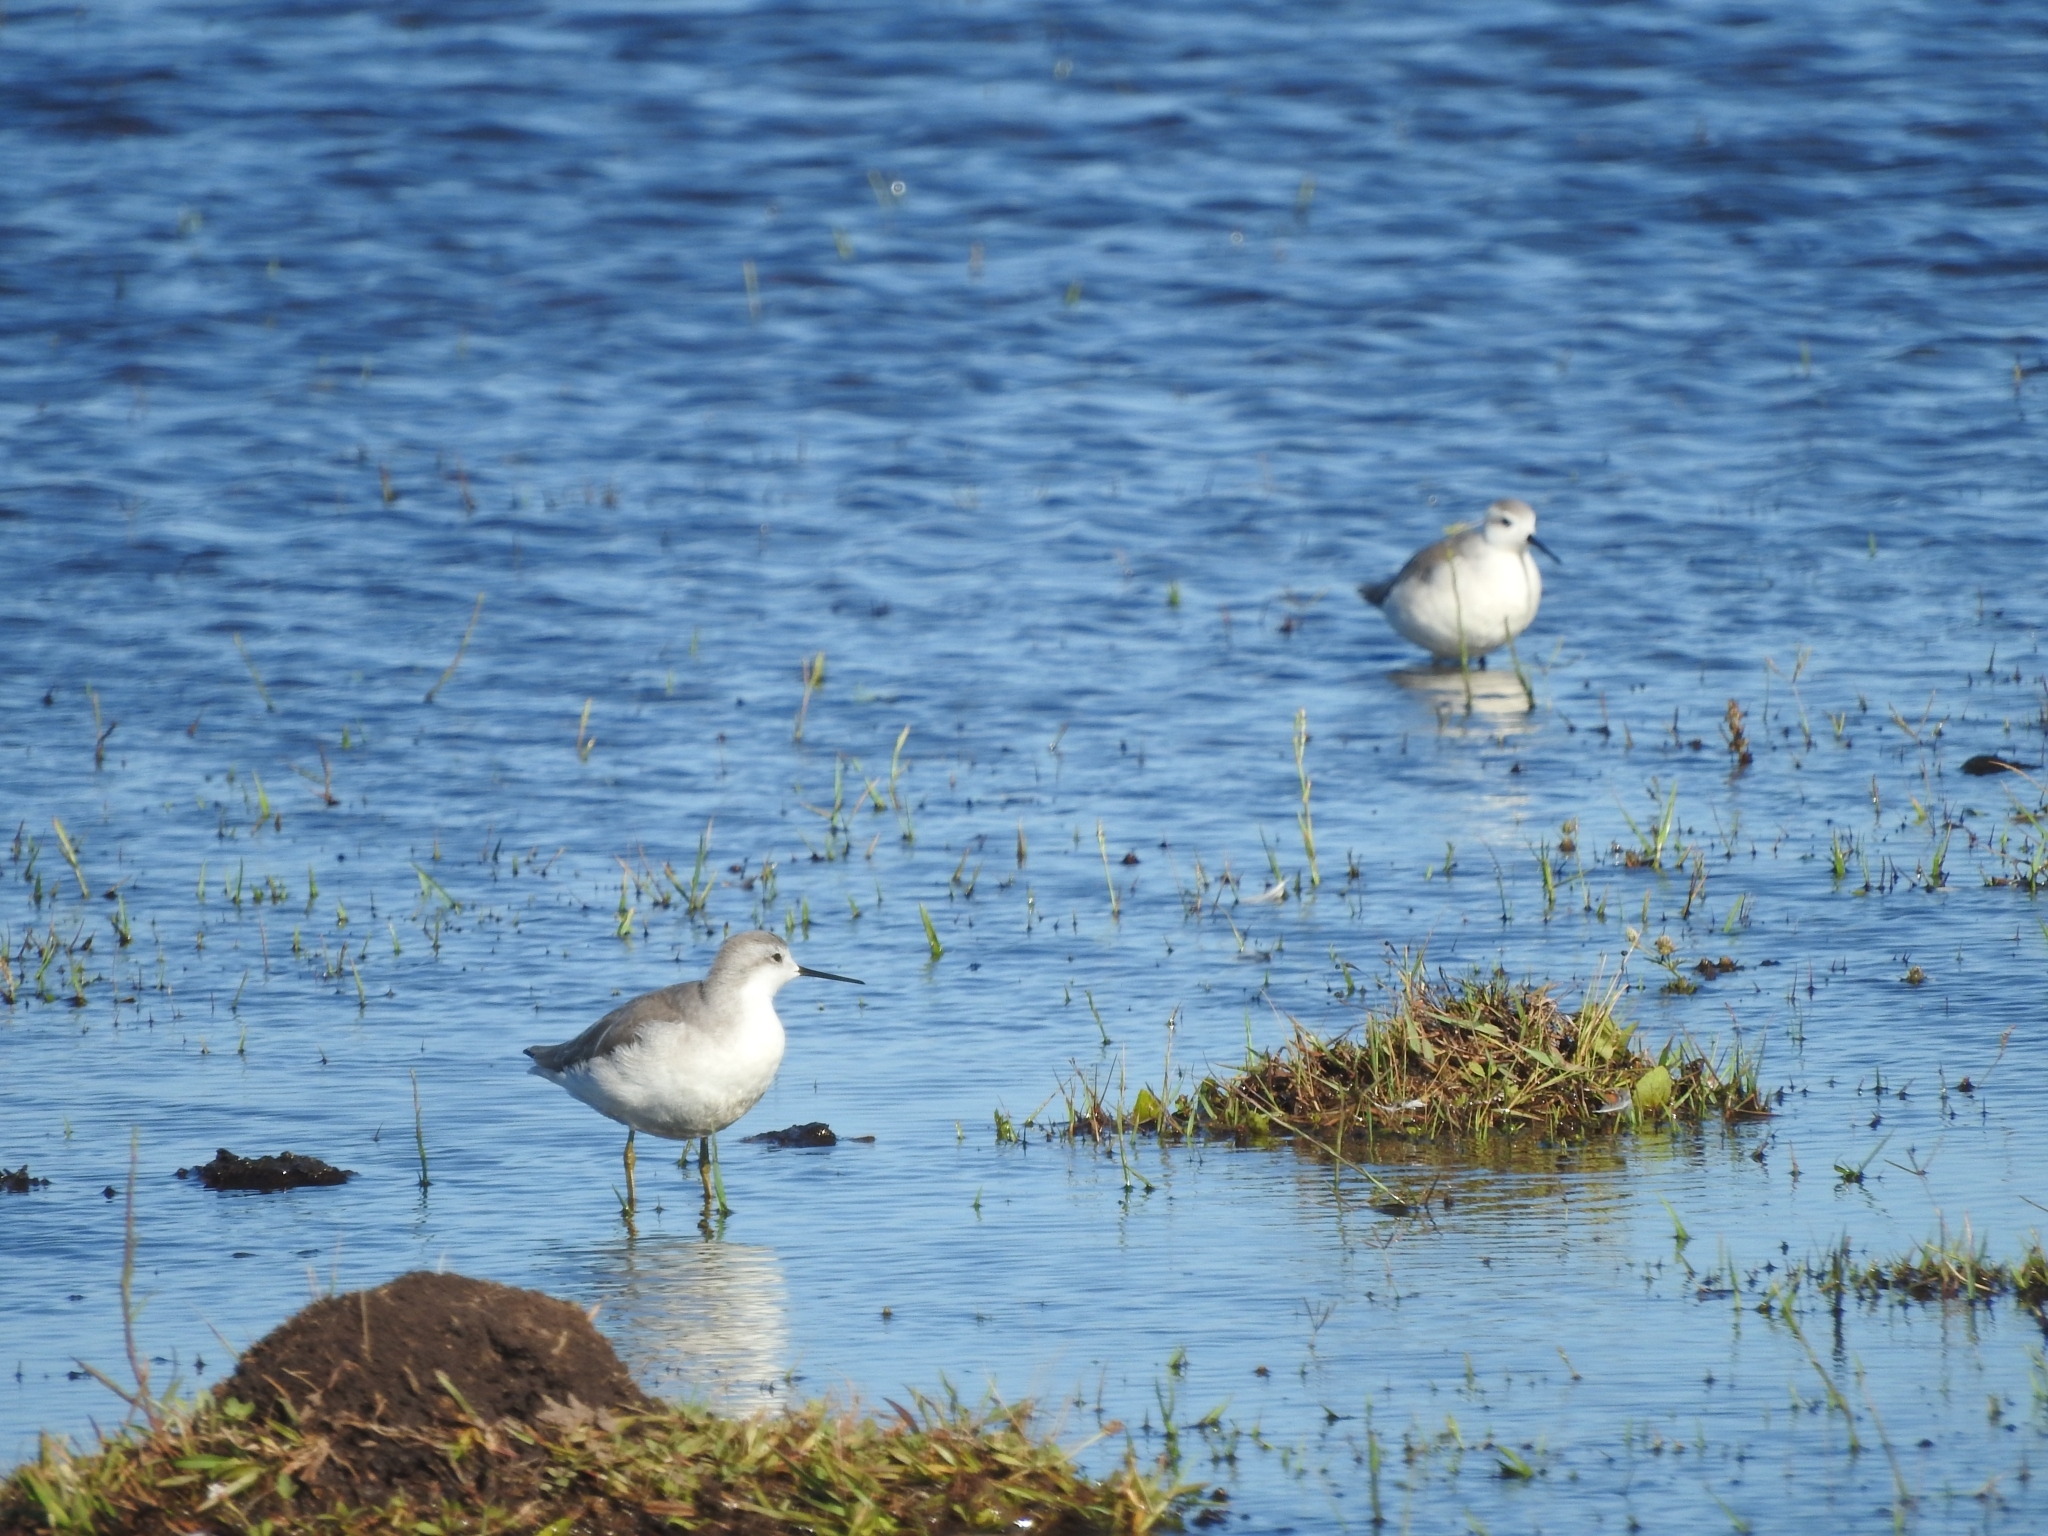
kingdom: Animalia
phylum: Chordata
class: Aves
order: Charadriiformes
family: Scolopacidae
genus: Phalaropus
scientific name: Phalaropus tricolor
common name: Wilson's phalarope
